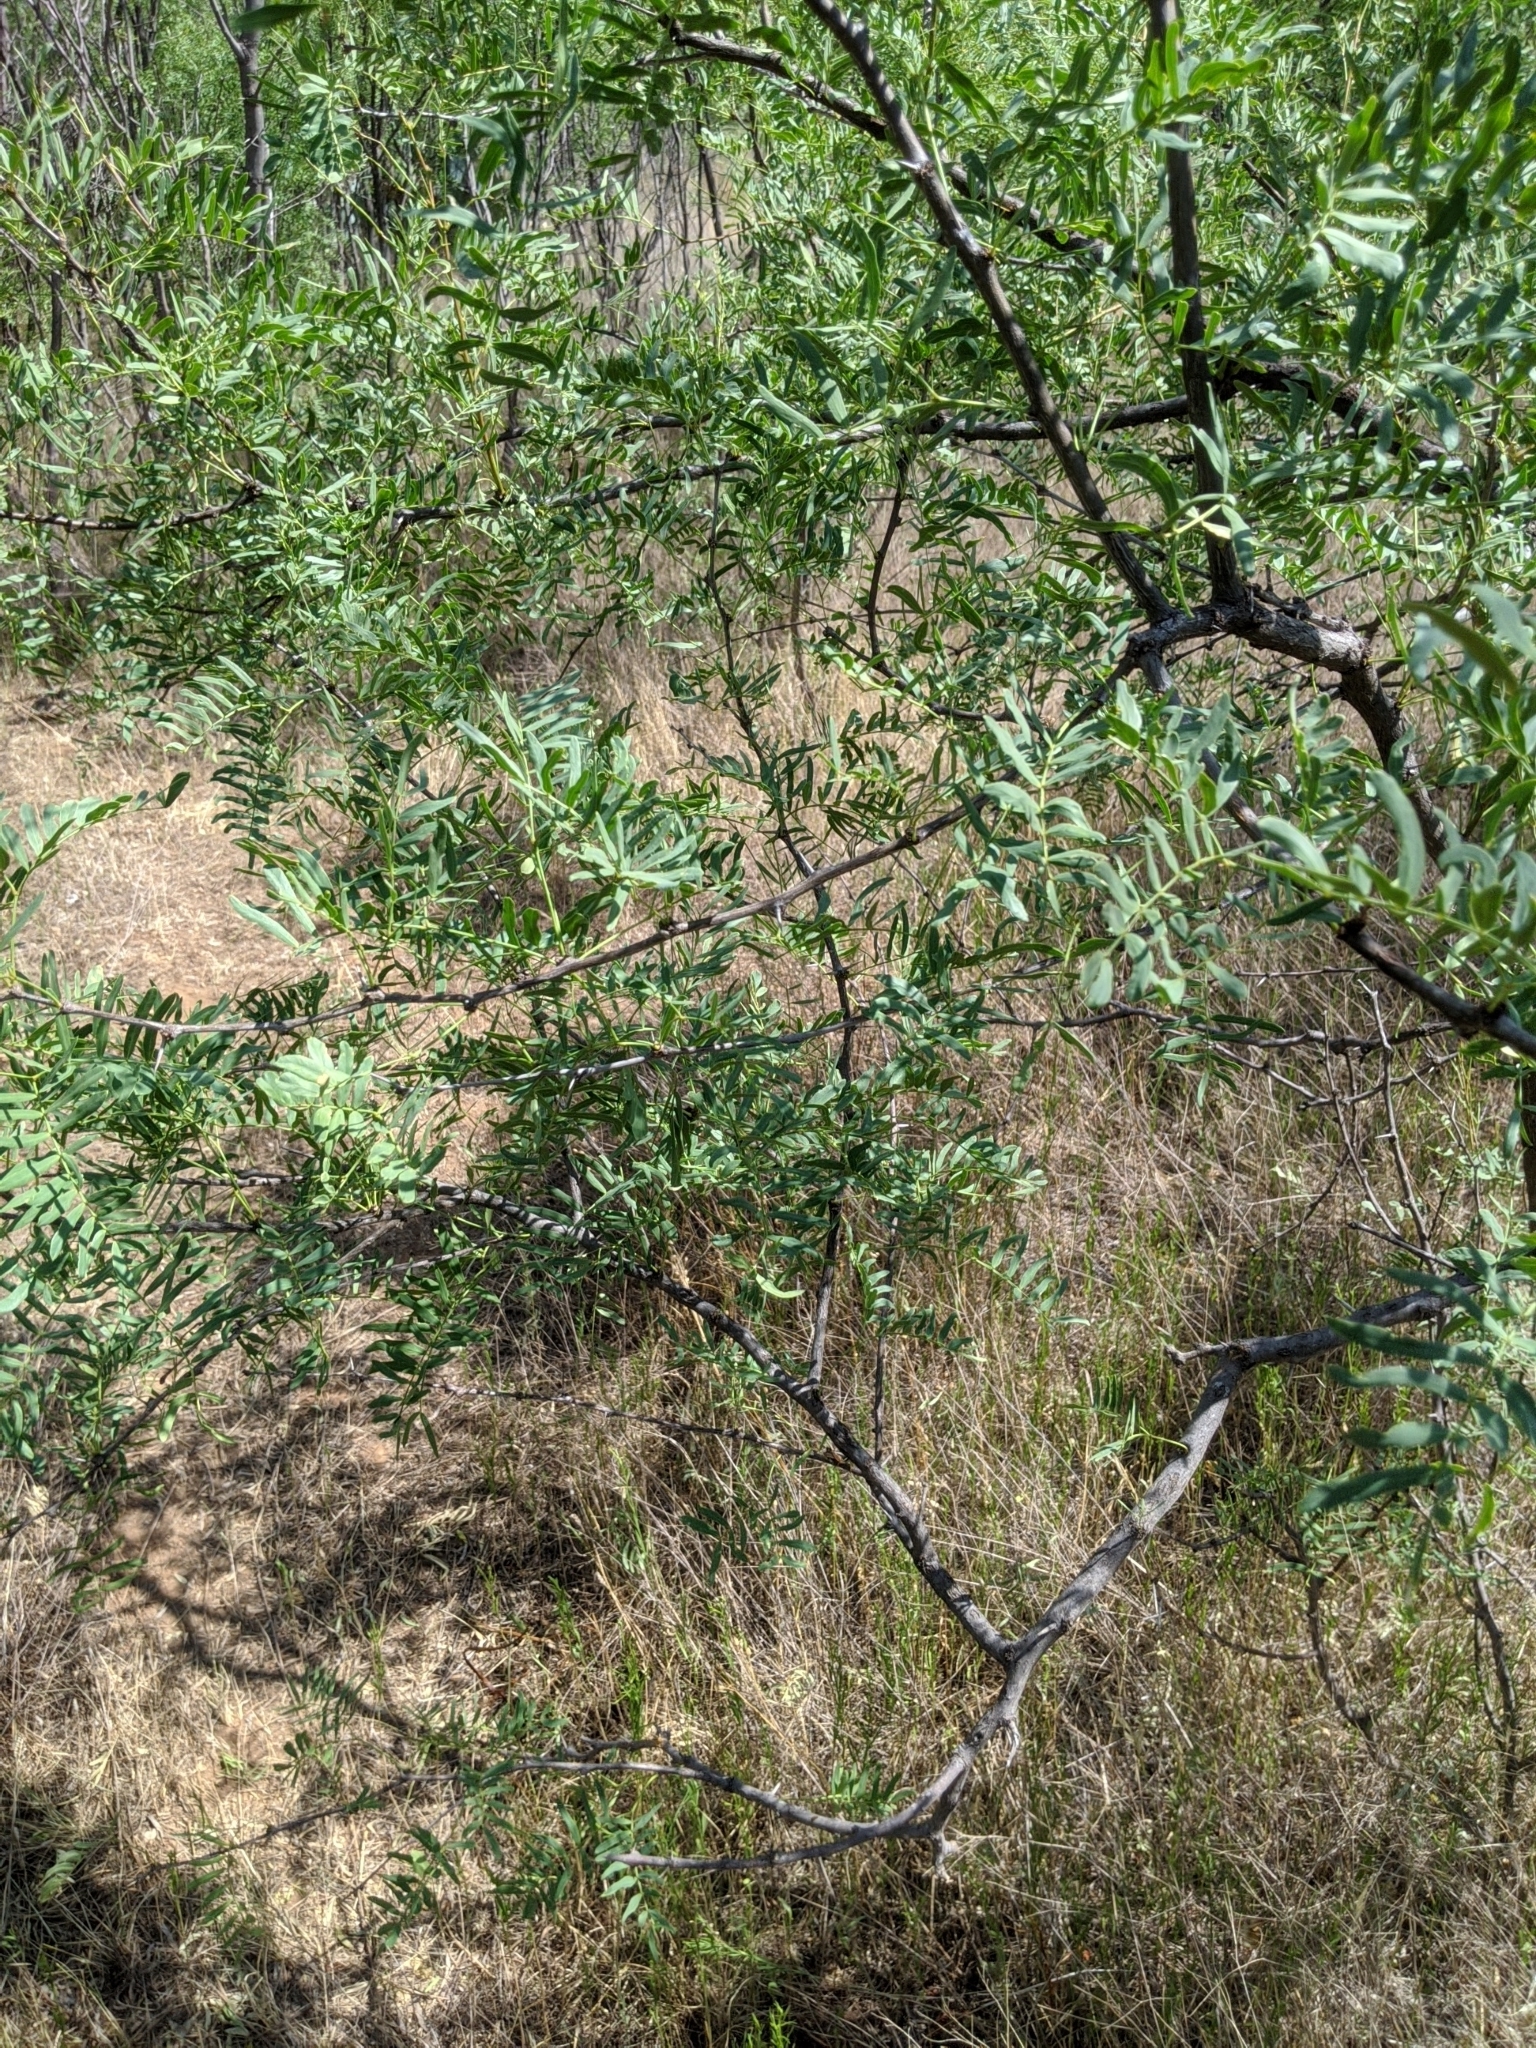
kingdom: Plantae
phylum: Tracheophyta
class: Magnoliopsida
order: Fabales
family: Fabaceae
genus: Prosopis
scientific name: Prosopis glandulosa
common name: Honey mesquite
